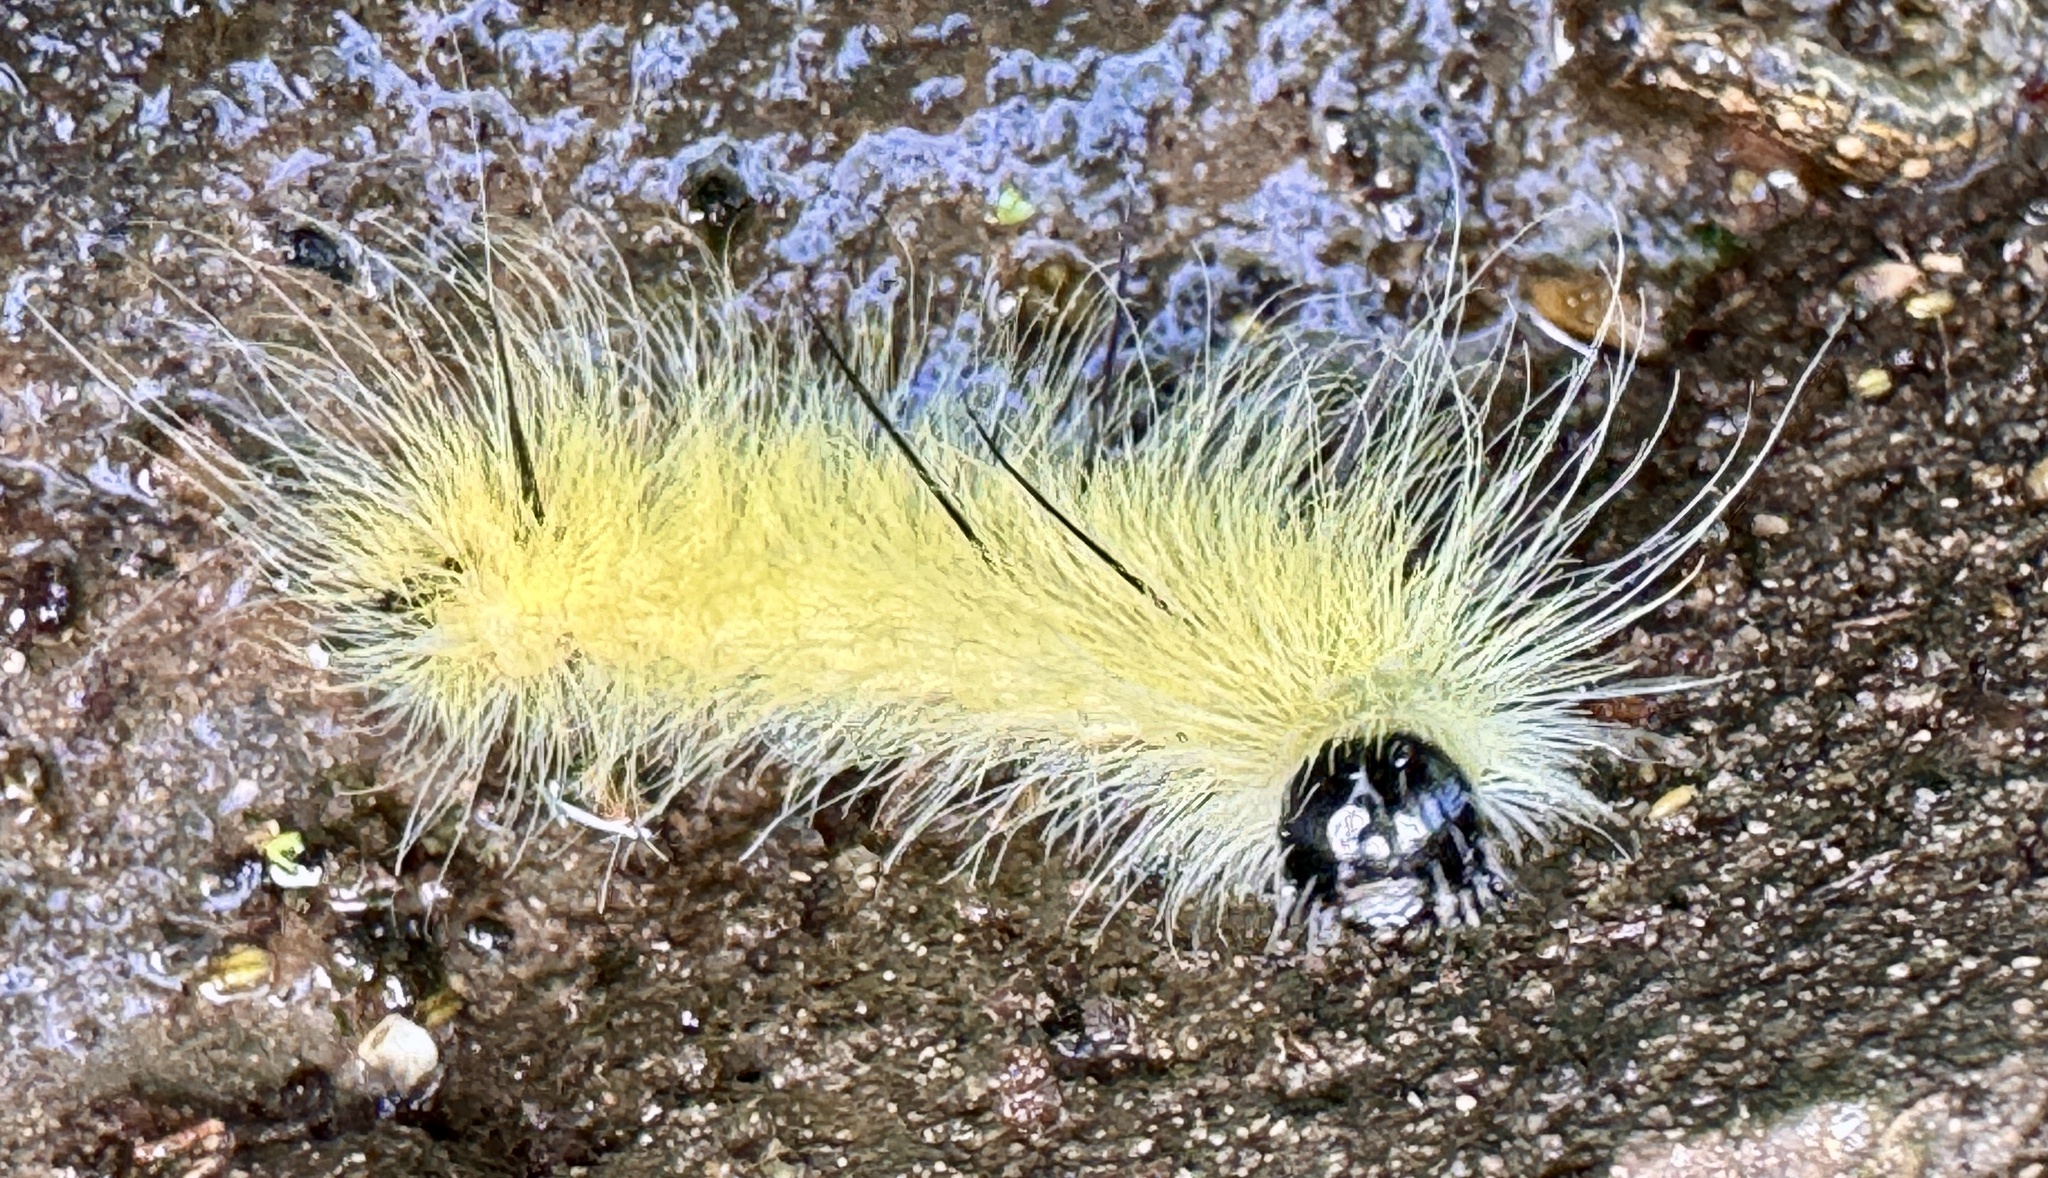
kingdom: Animalia
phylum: Arthropoda
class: Insecta
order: Lepidoptera
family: Noctuidae
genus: Acronicta
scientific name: Acronicta americana
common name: American dagger
